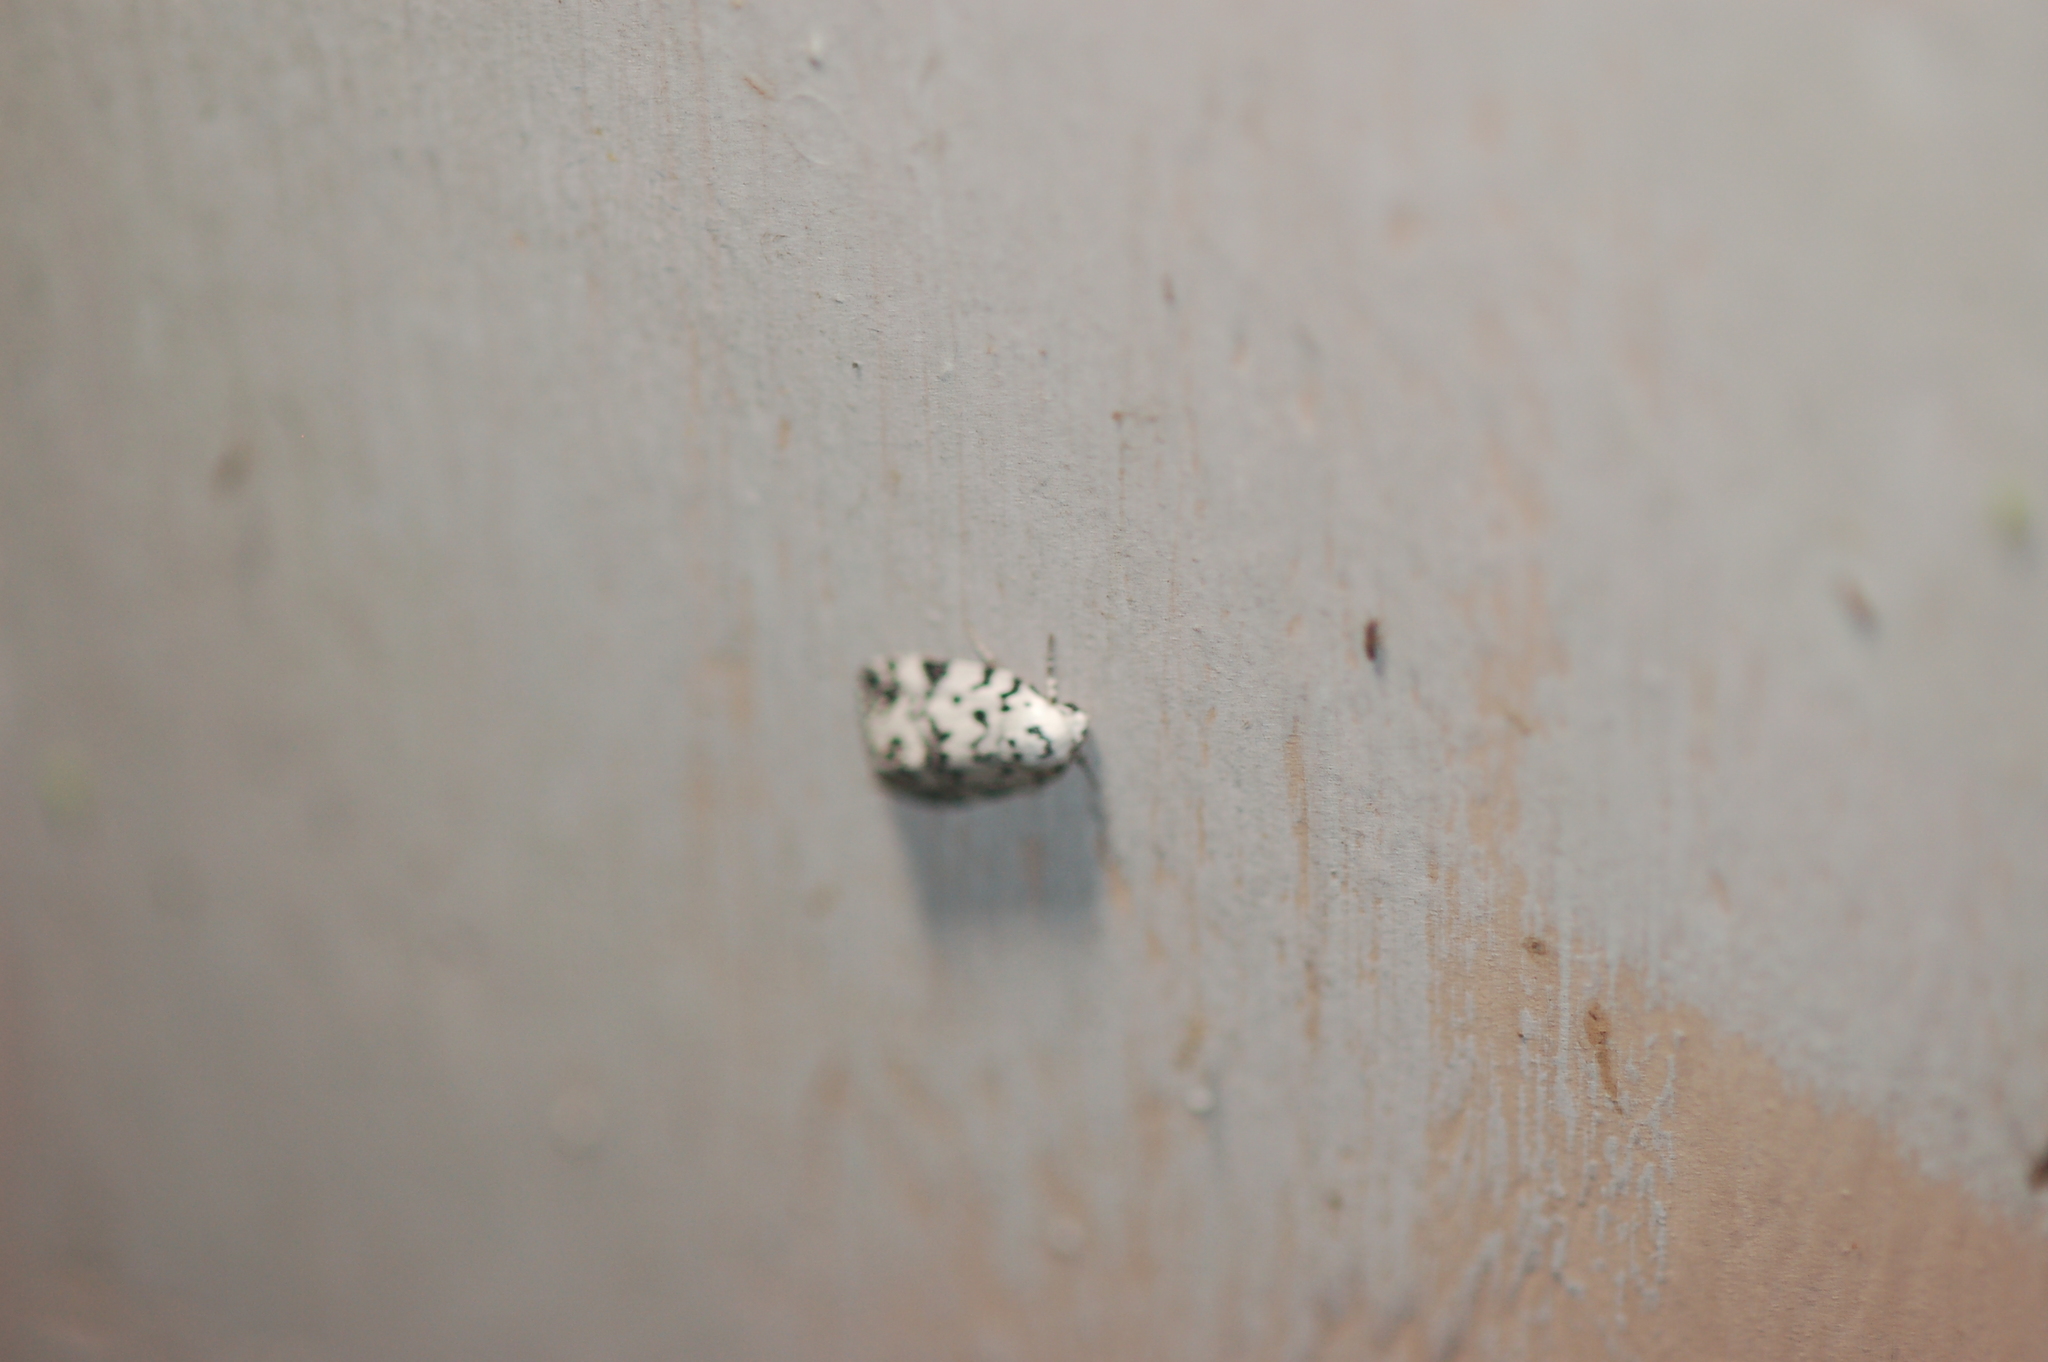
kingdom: Animalia
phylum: Arthropoda
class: Insecta
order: Lepidoptera
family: Noctuidae
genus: Polygrammate
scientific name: Polygrammate hebraeicum
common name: Hebrew moth
